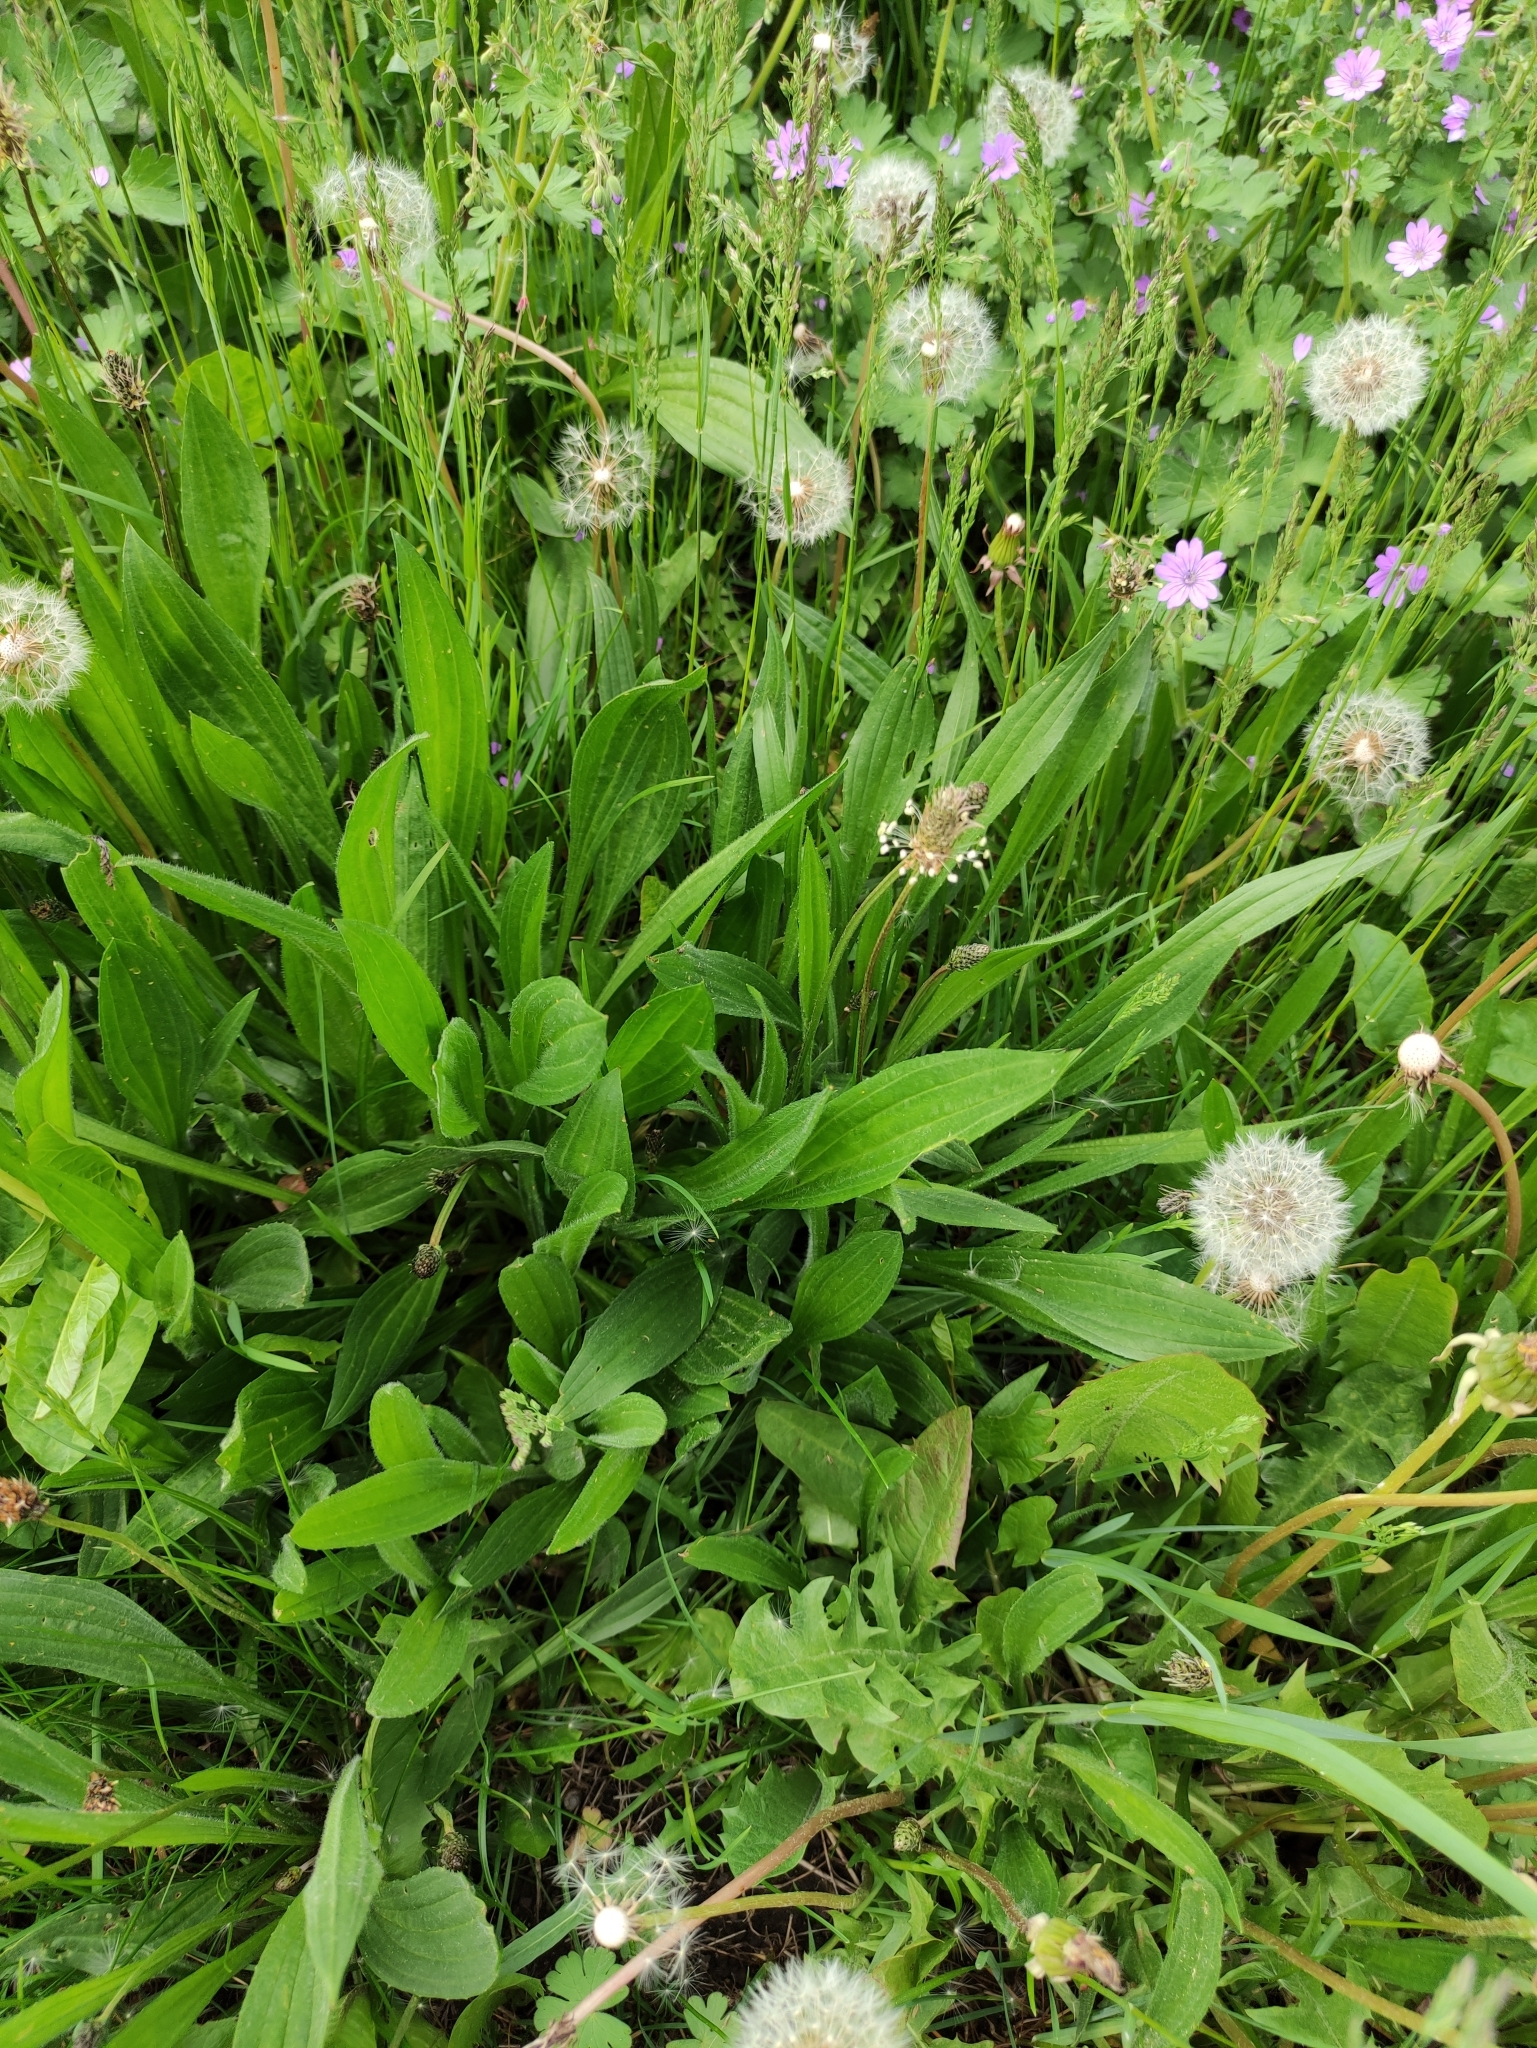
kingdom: Plantae
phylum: Tracheophyta
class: Magnoliopsida
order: Lamiales
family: Plantaginaceae
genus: Plantago
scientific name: Plantago lanceolata
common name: Ribwort plantain
